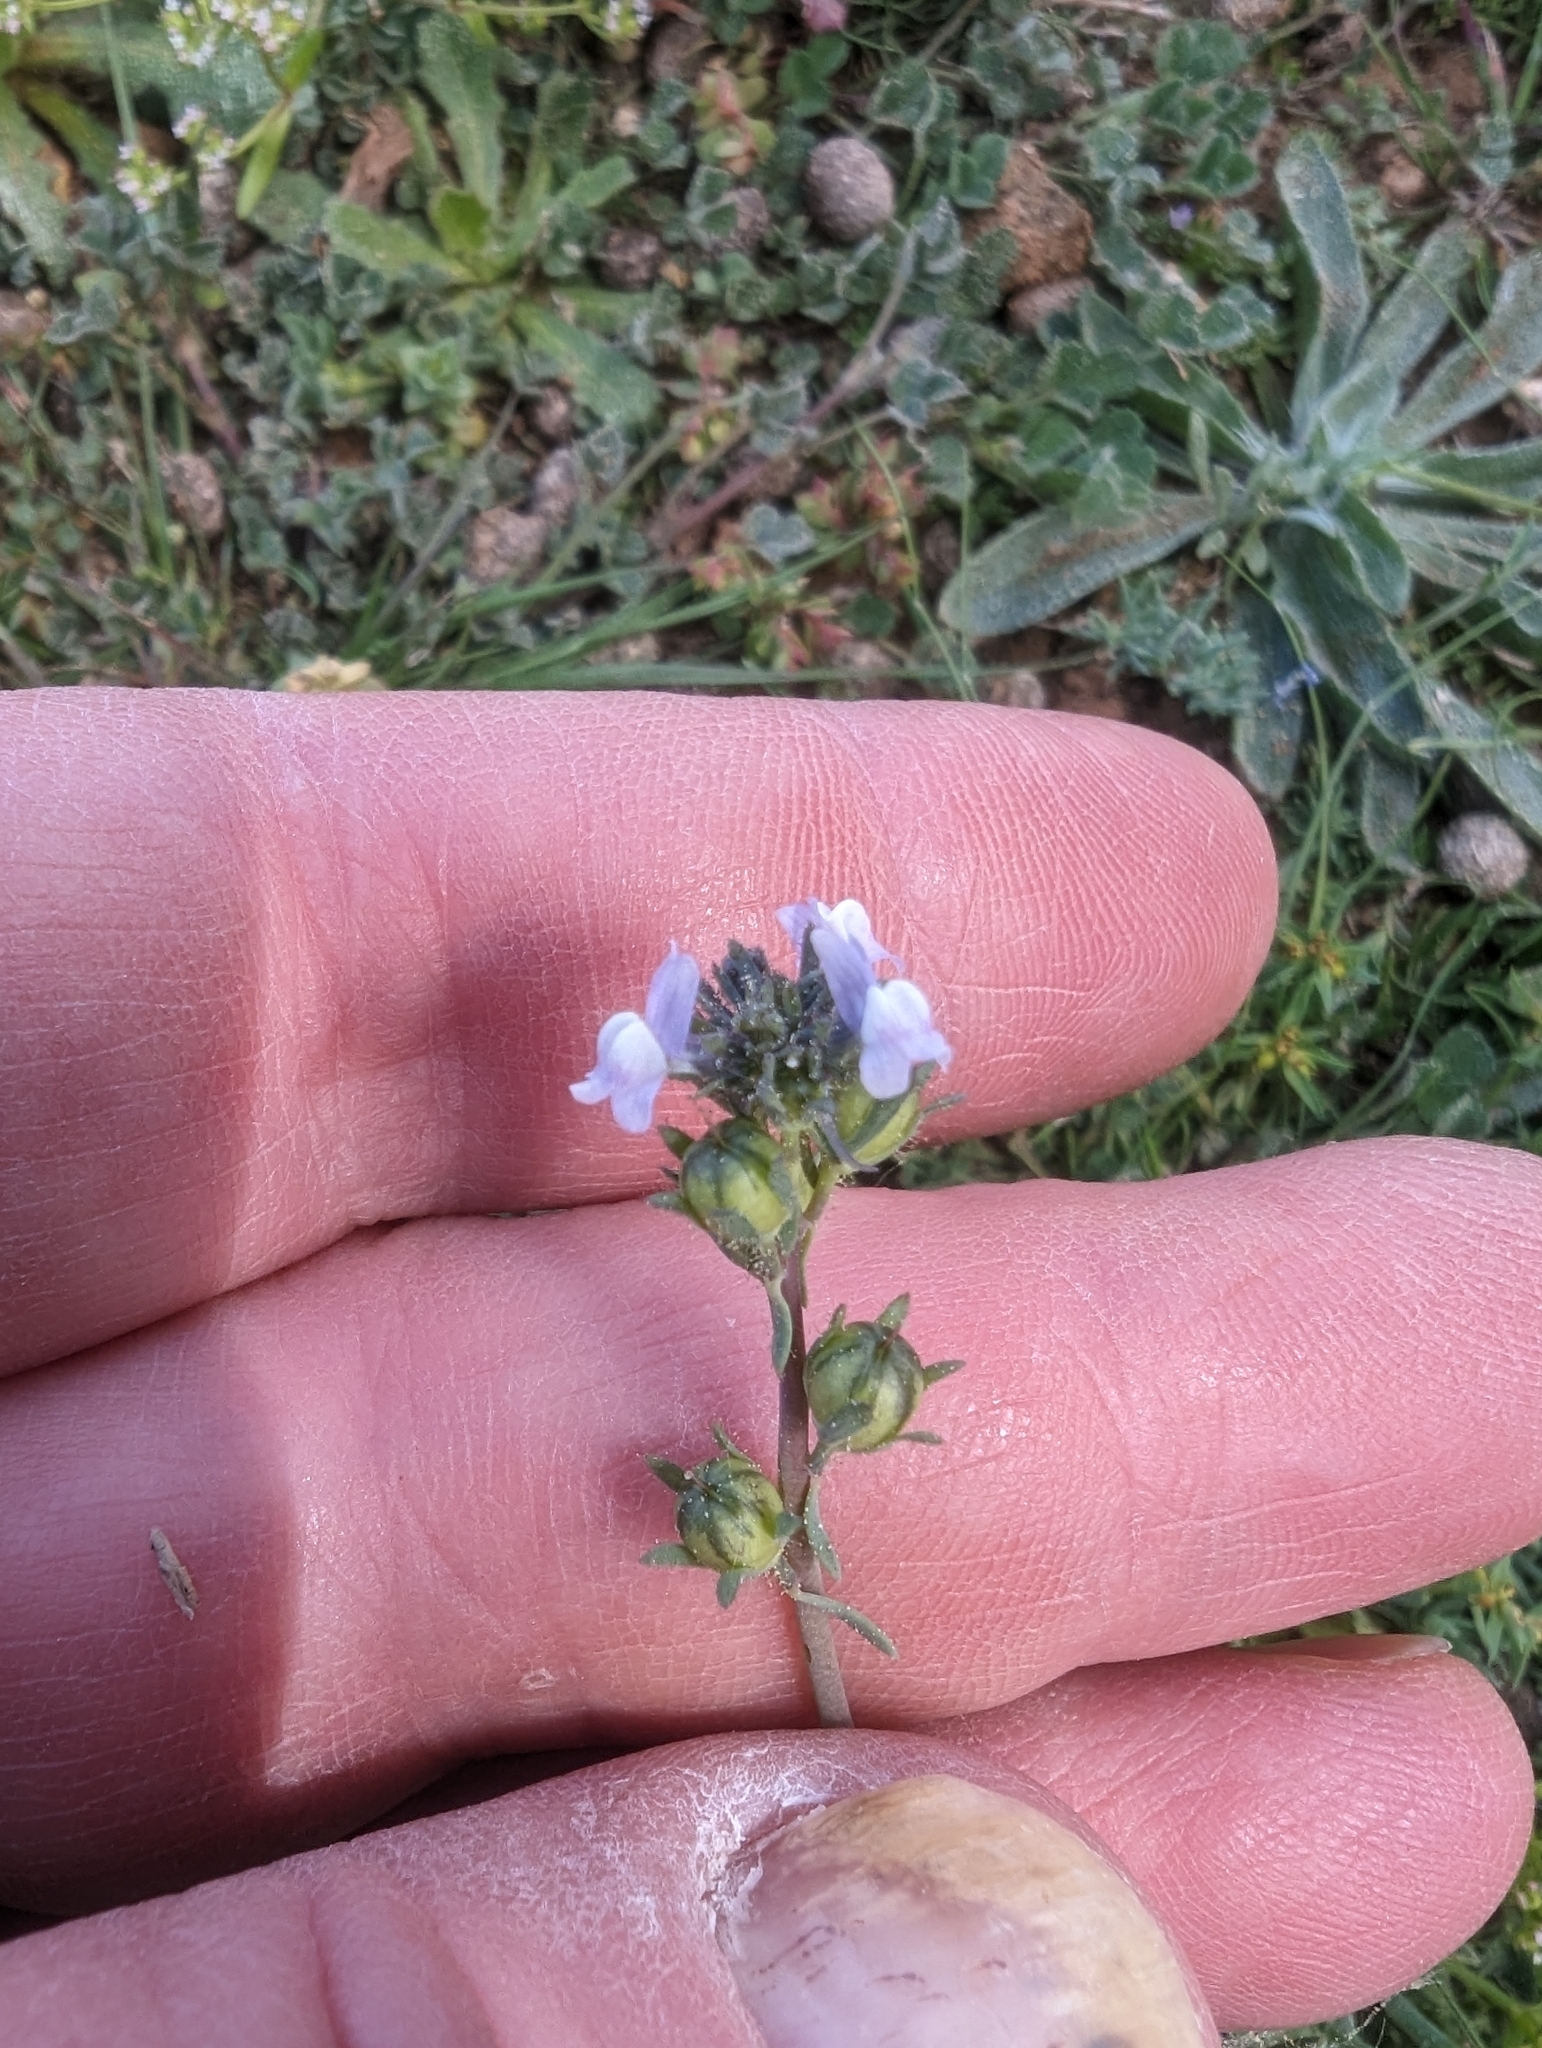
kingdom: Plantae
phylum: Tracheophyta
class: Magnoliopsida
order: Lamiales
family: Plantaginaceae
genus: Linaria
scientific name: Linaria arvensis
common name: Corn toadflax
